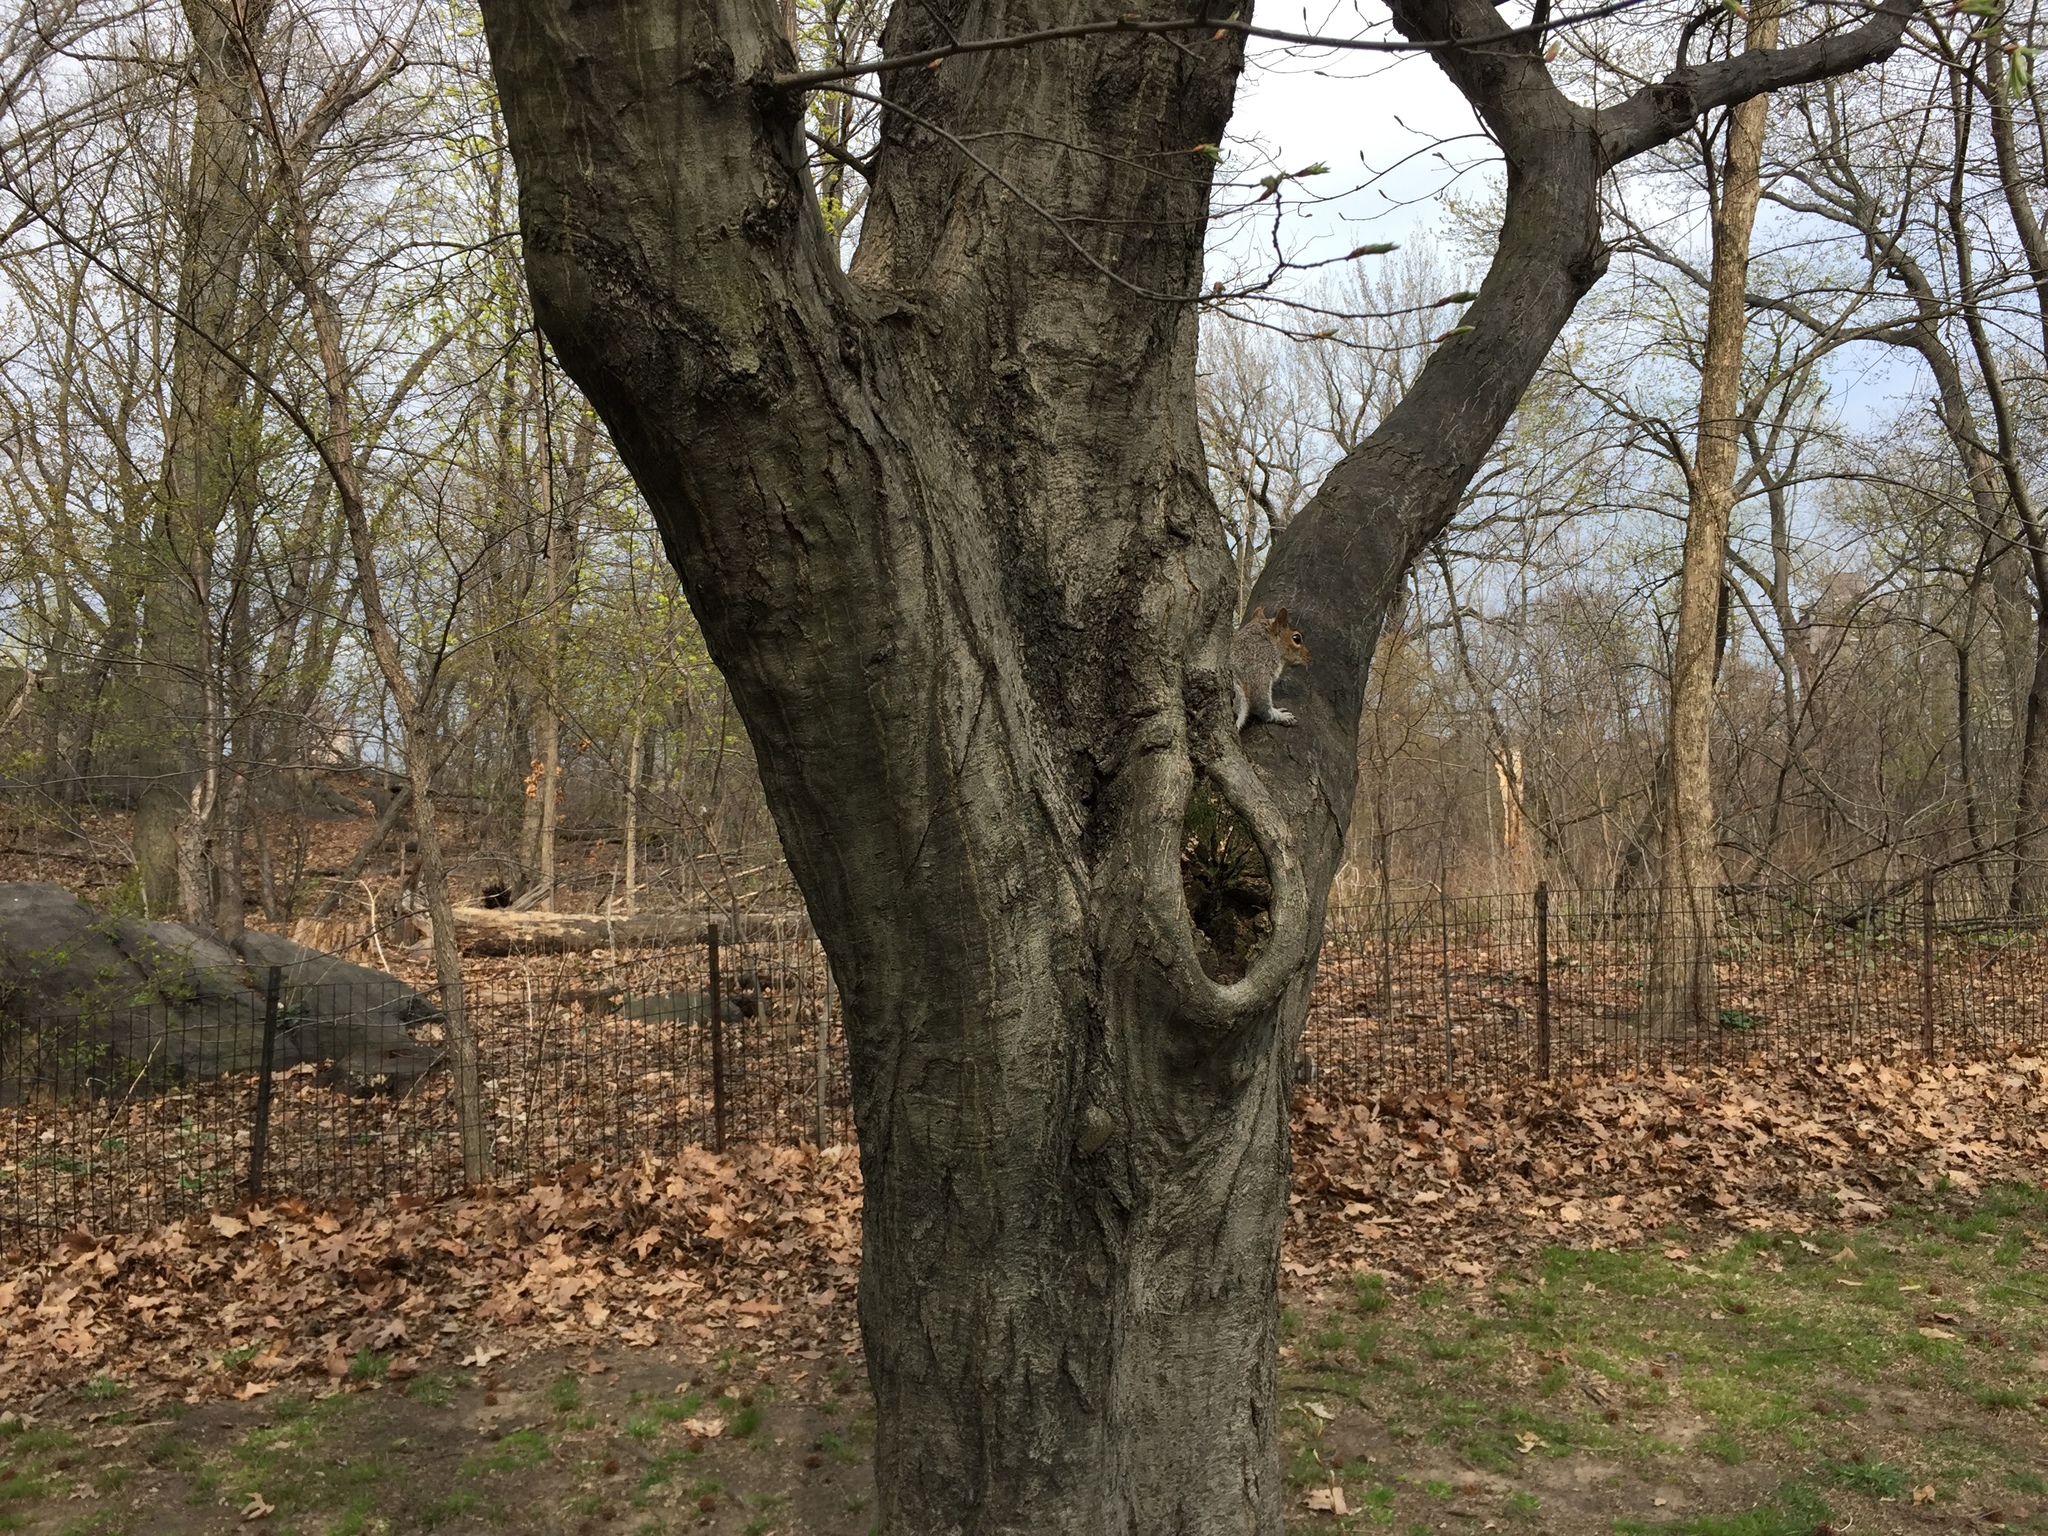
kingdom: Animalia
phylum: Chordata
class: Mammalia
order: Rodentia
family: Sciuridae
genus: Sciurus
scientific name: Sciurus carolinensis
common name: Eastern gray squirrel
